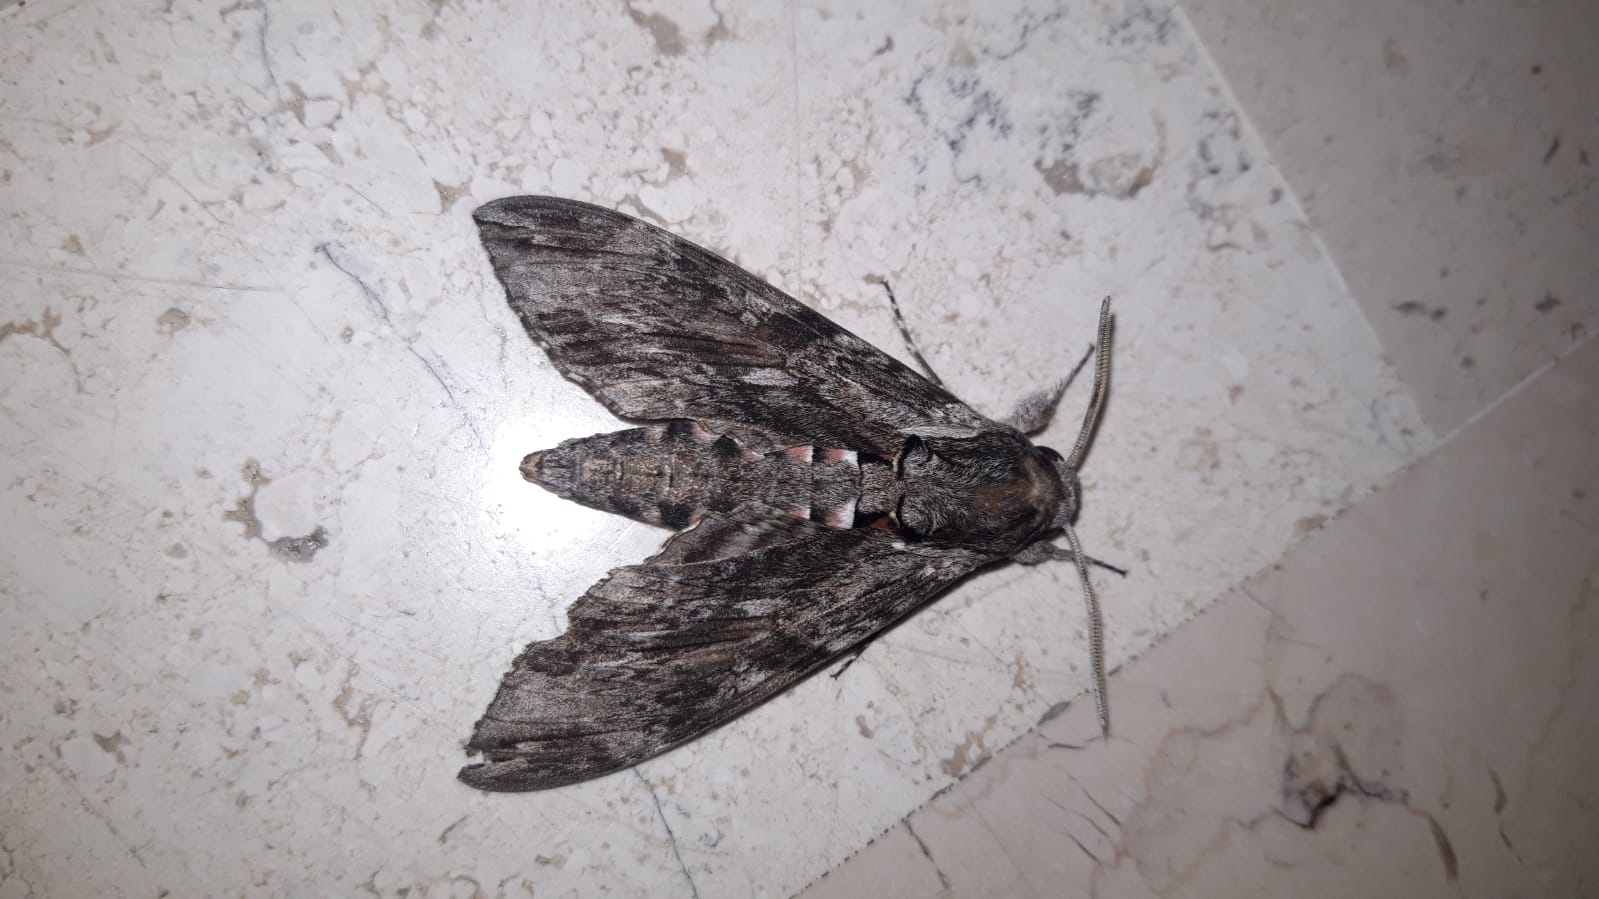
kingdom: Animalia
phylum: Arthropoda
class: Insecta
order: Lepidoptera
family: Sphingidae
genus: Agrius
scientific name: Agrius convolvuli
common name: Convolvulus hawkmoth
